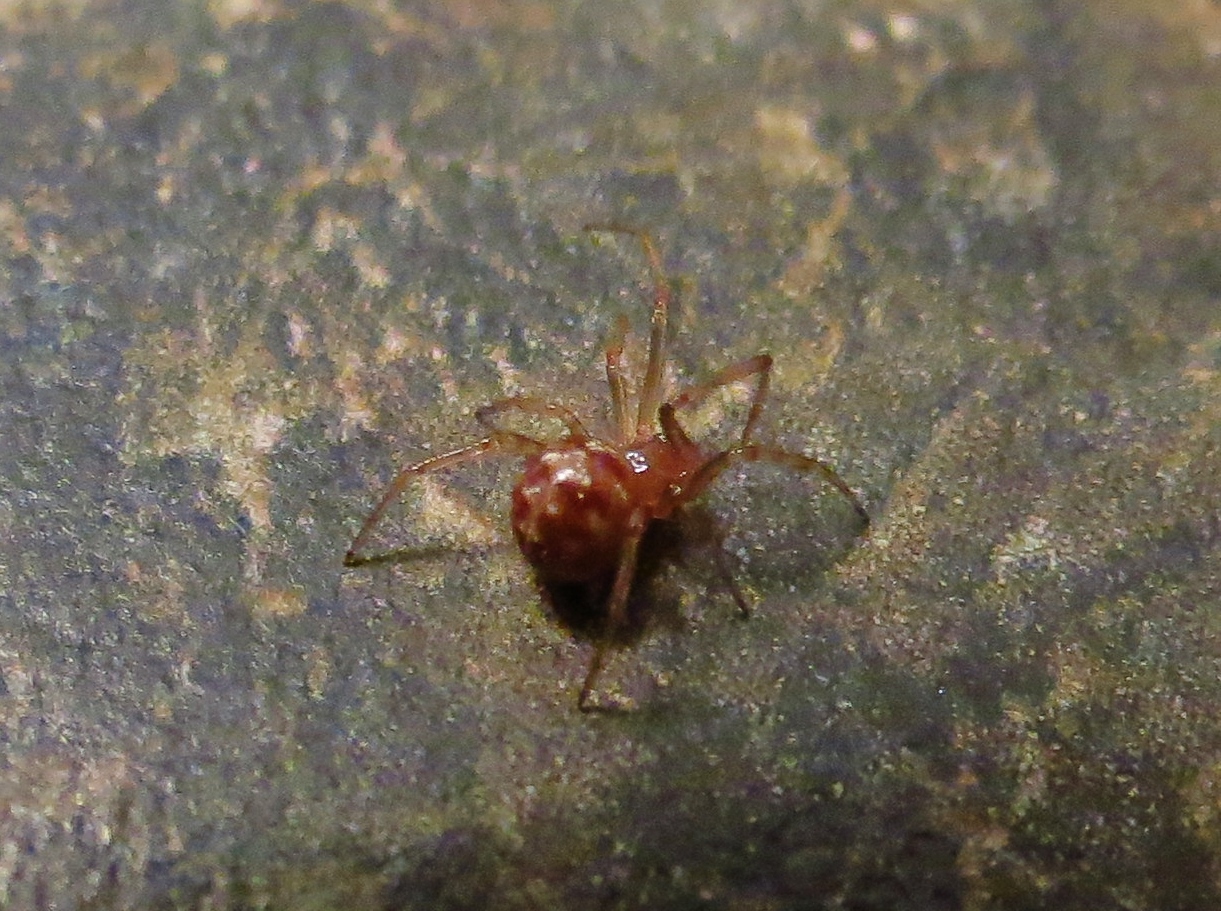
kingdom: Animalia
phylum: Arthropoda
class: Arachnida
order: Araneae
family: Theridiidae
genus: Steatoda
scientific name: Steatoda triangulosa
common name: Triangulate bud spider
